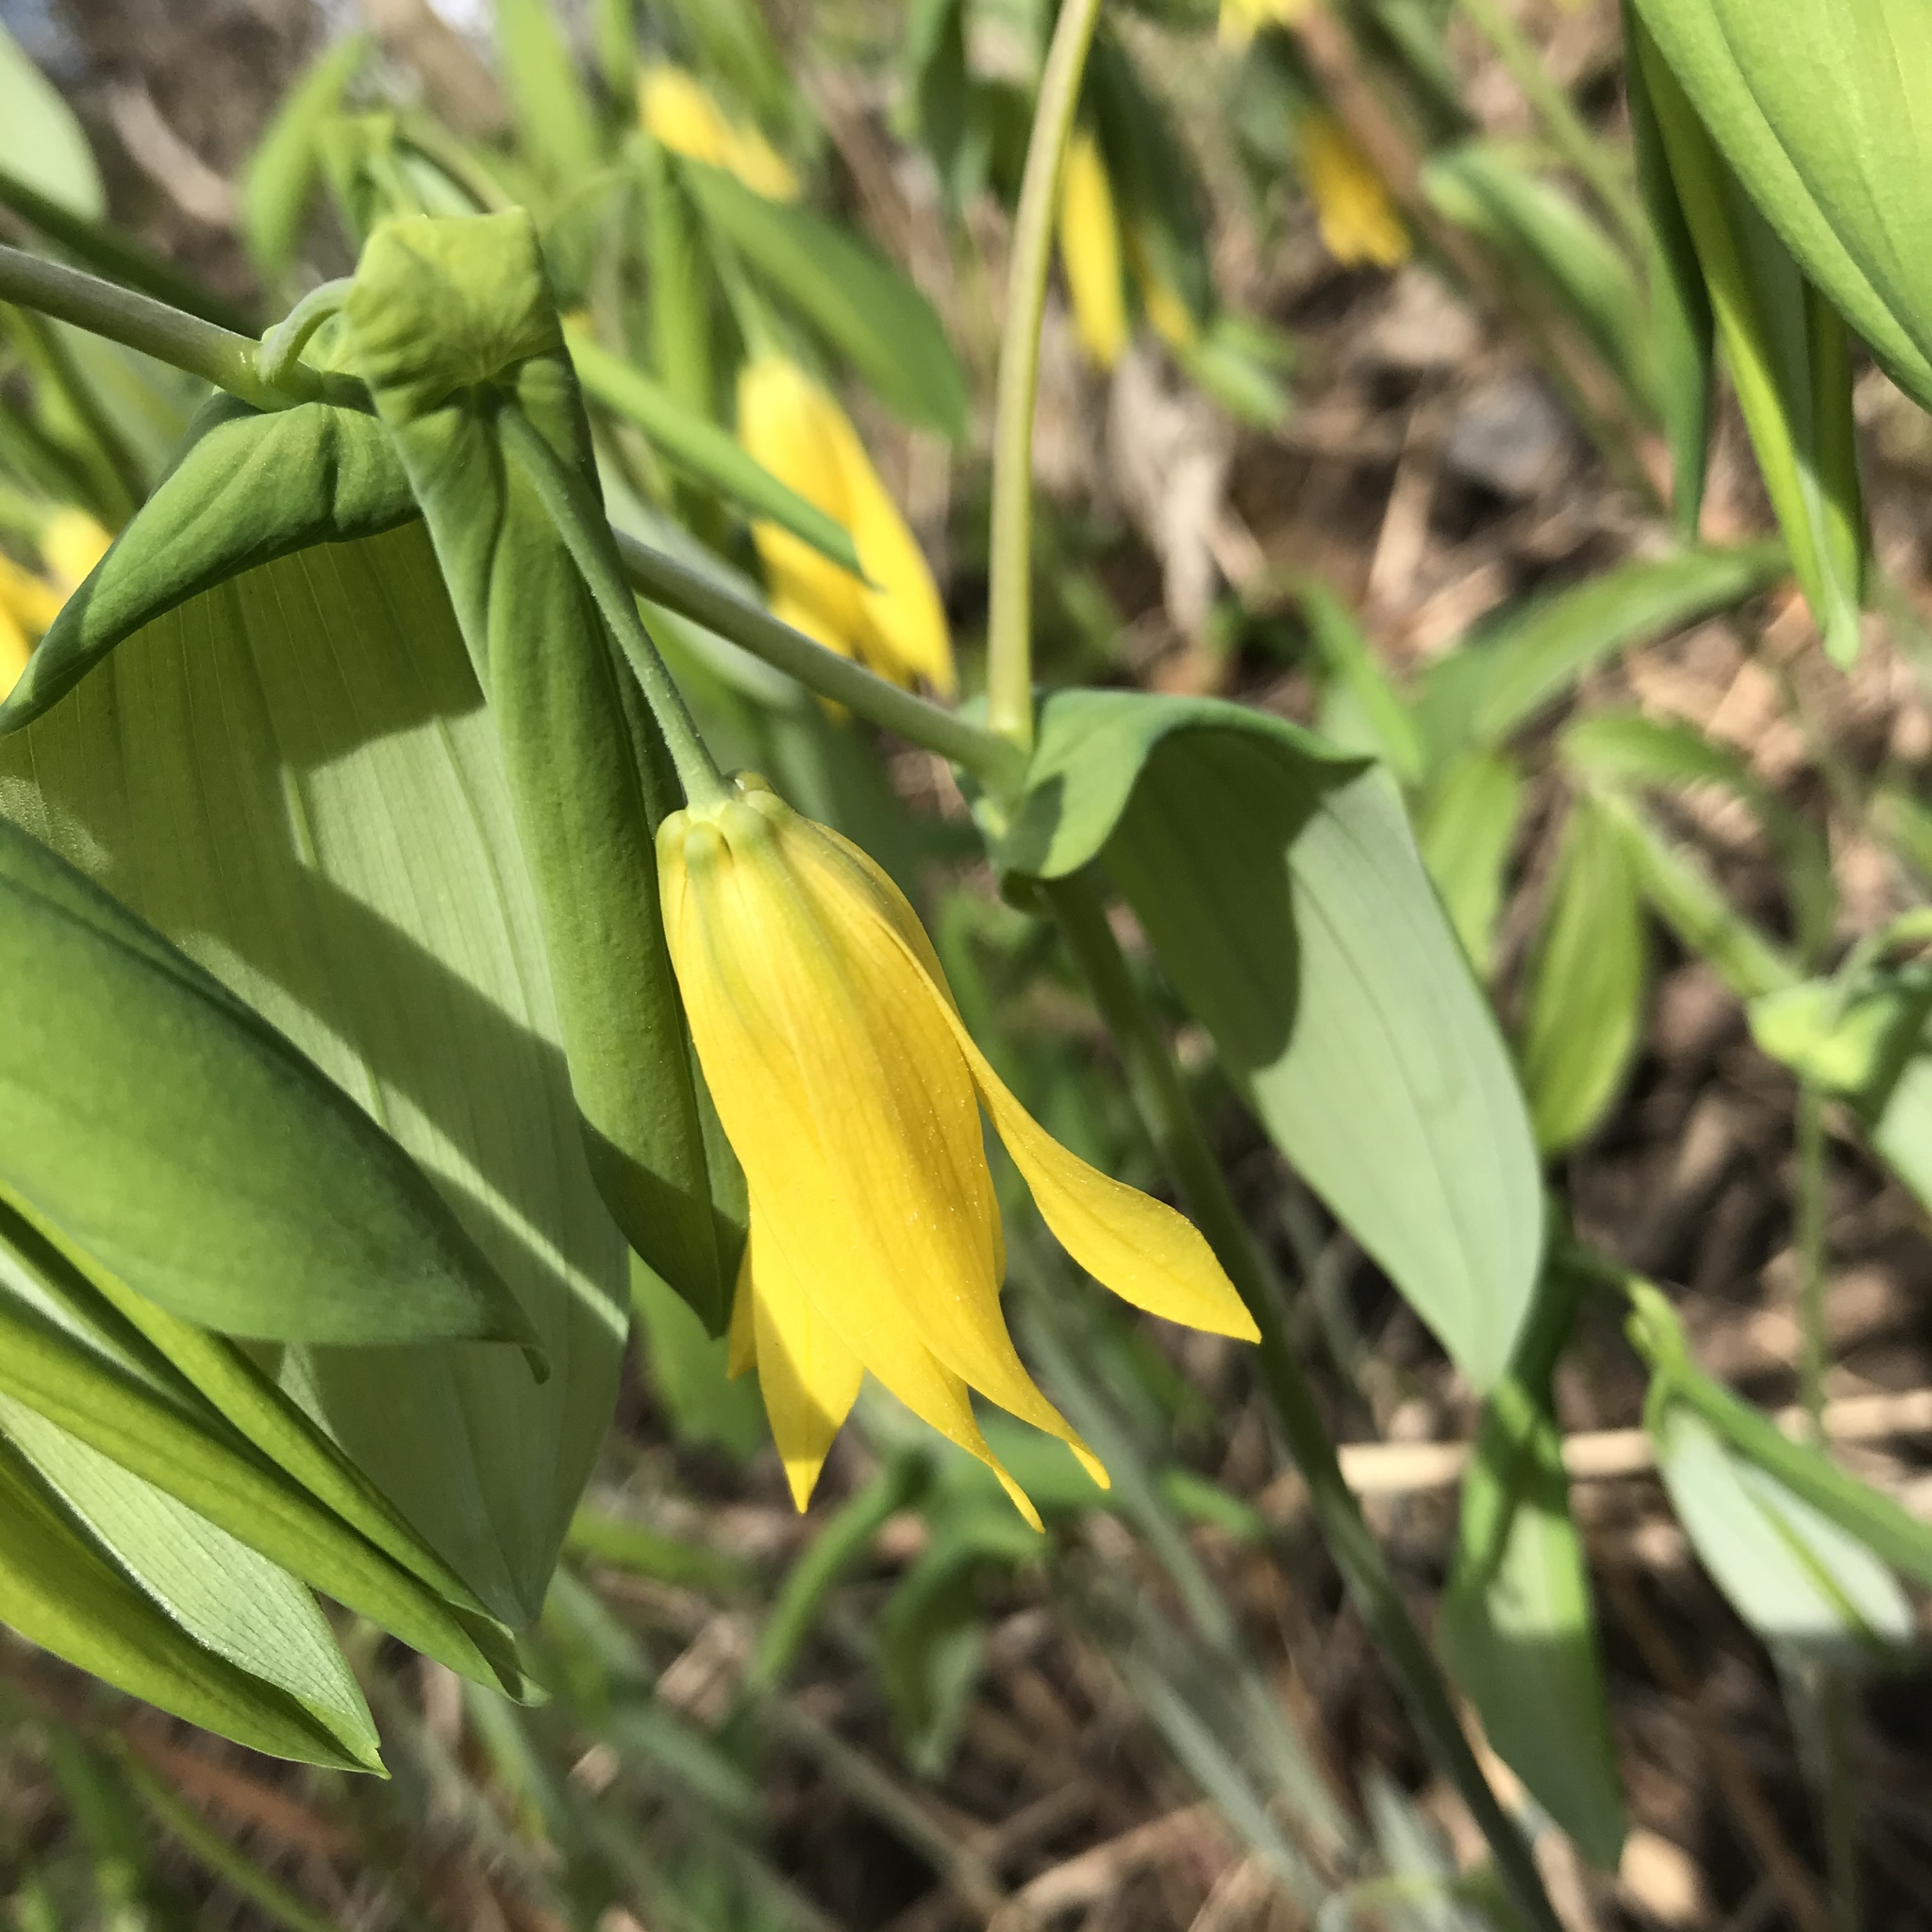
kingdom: Plantae
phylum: Tracheophyta
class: Liliopsida
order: Liliales
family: Colchicaceae
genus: Uvularia
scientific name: Uvularia grandiflora
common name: Bellwort
